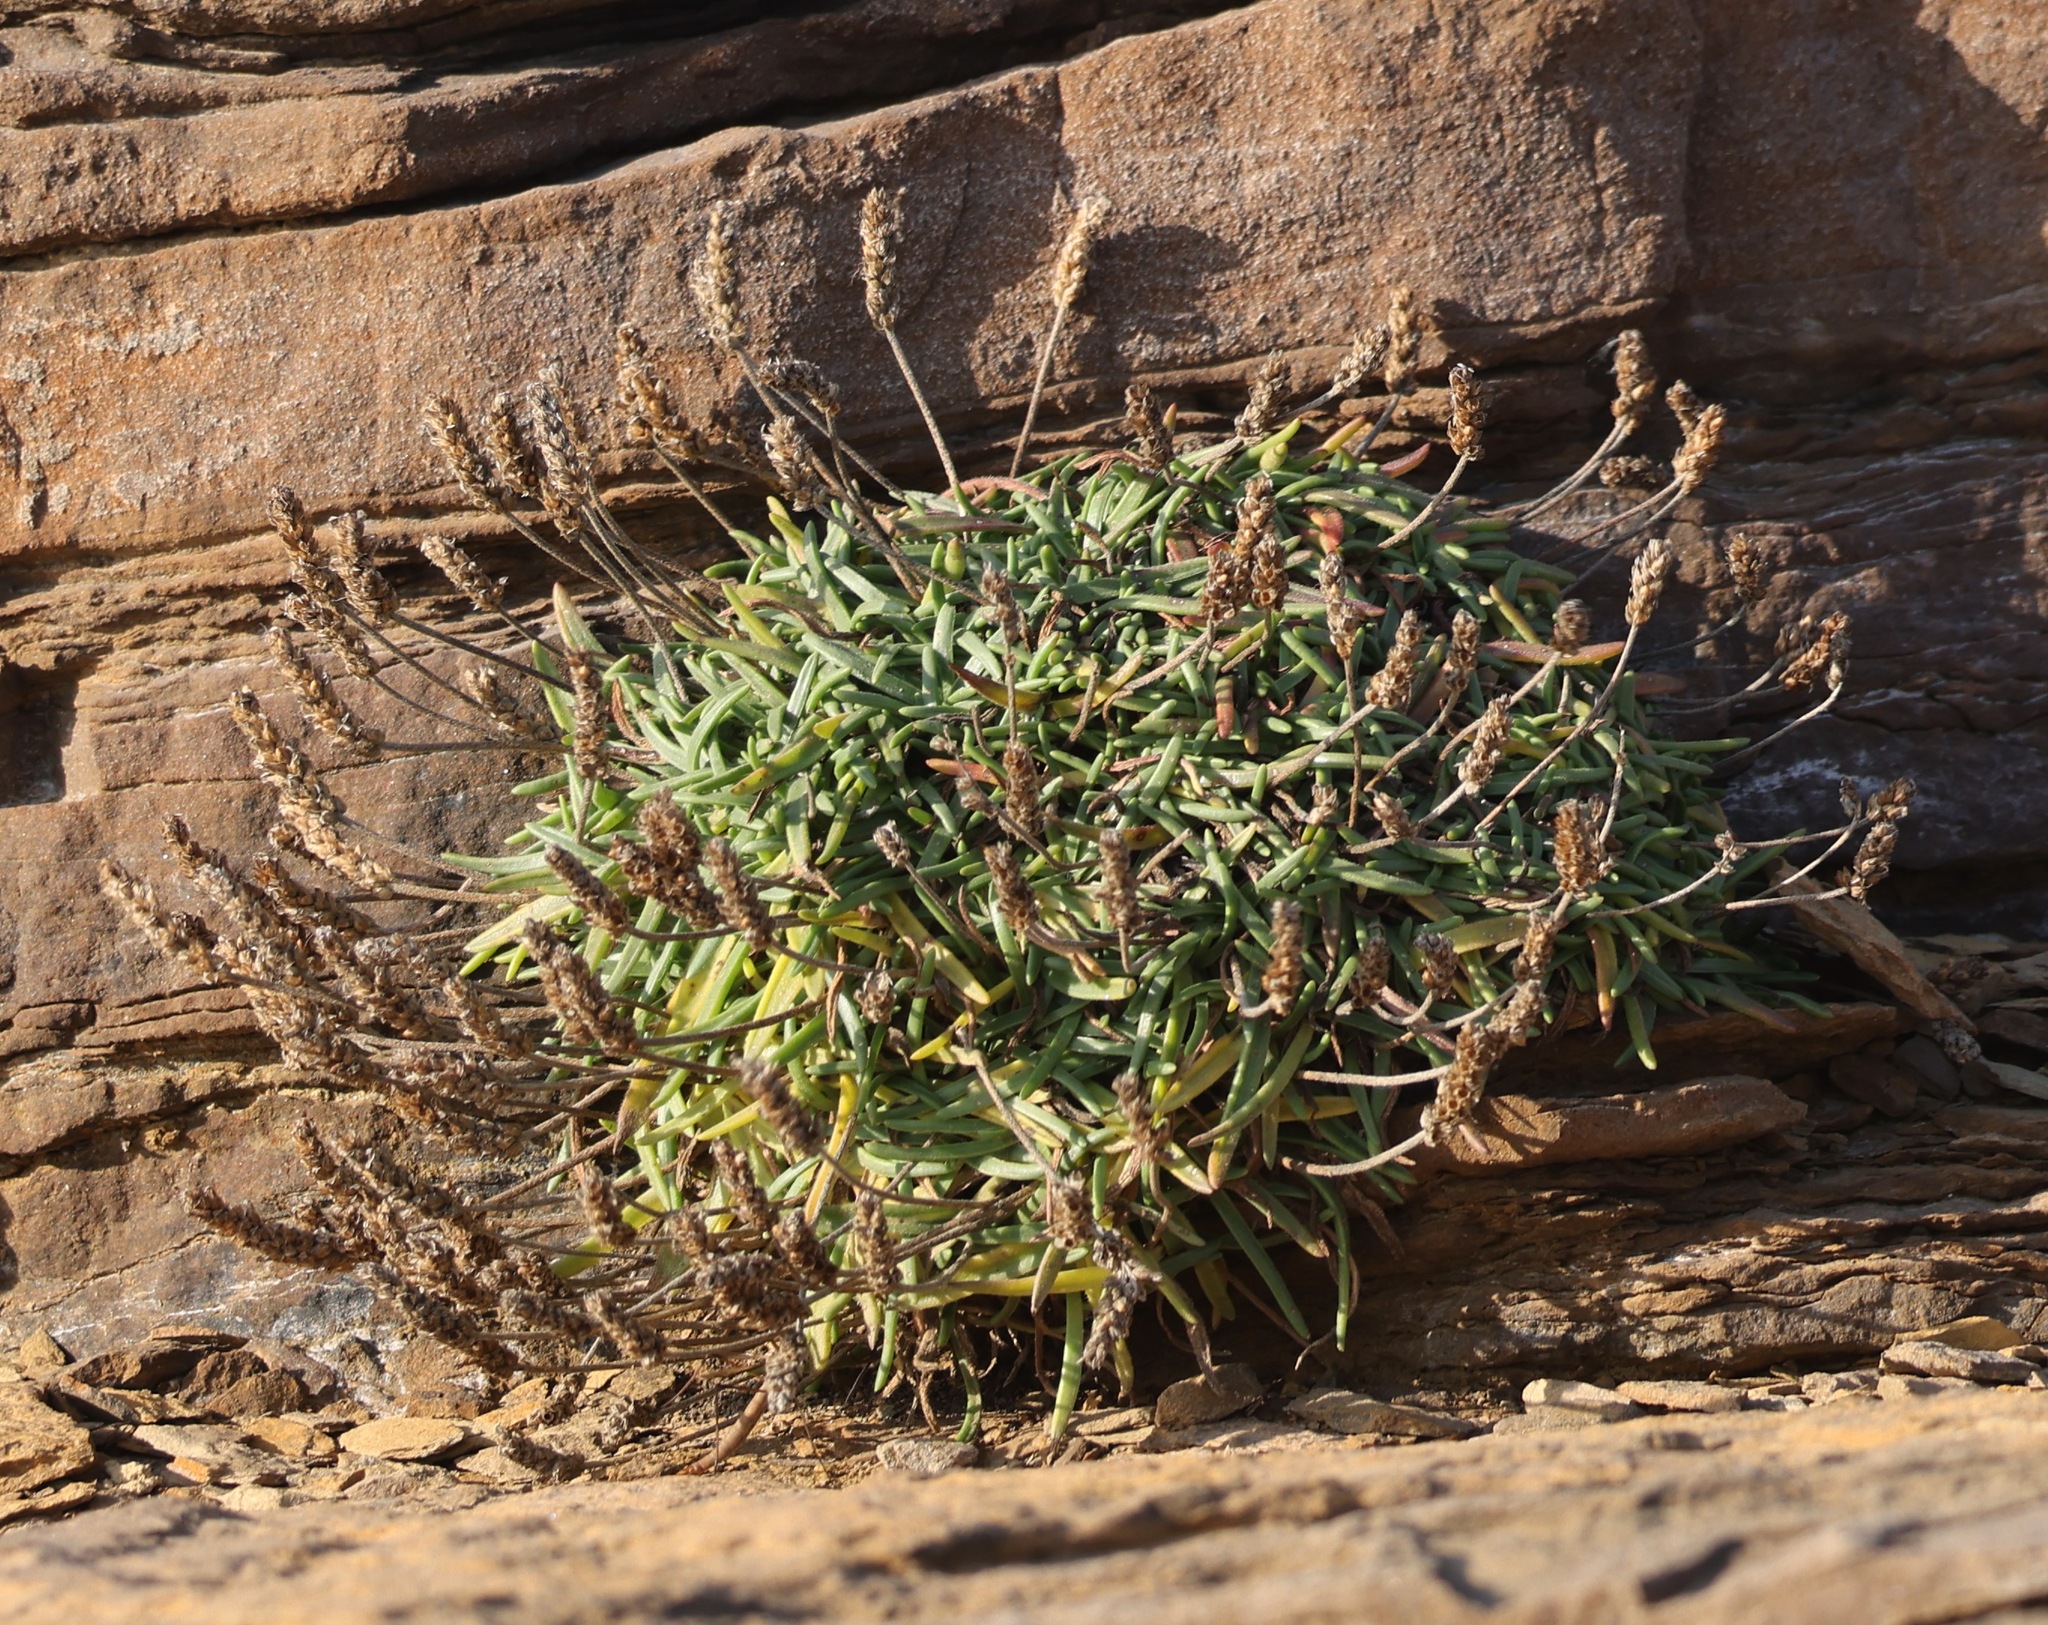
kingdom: Plantae
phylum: Tracheophyta
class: Magnoliopsida
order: Lamiales
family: Plantaginaceae
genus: Plantago
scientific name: Plantago maritima
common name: Sea plantain
